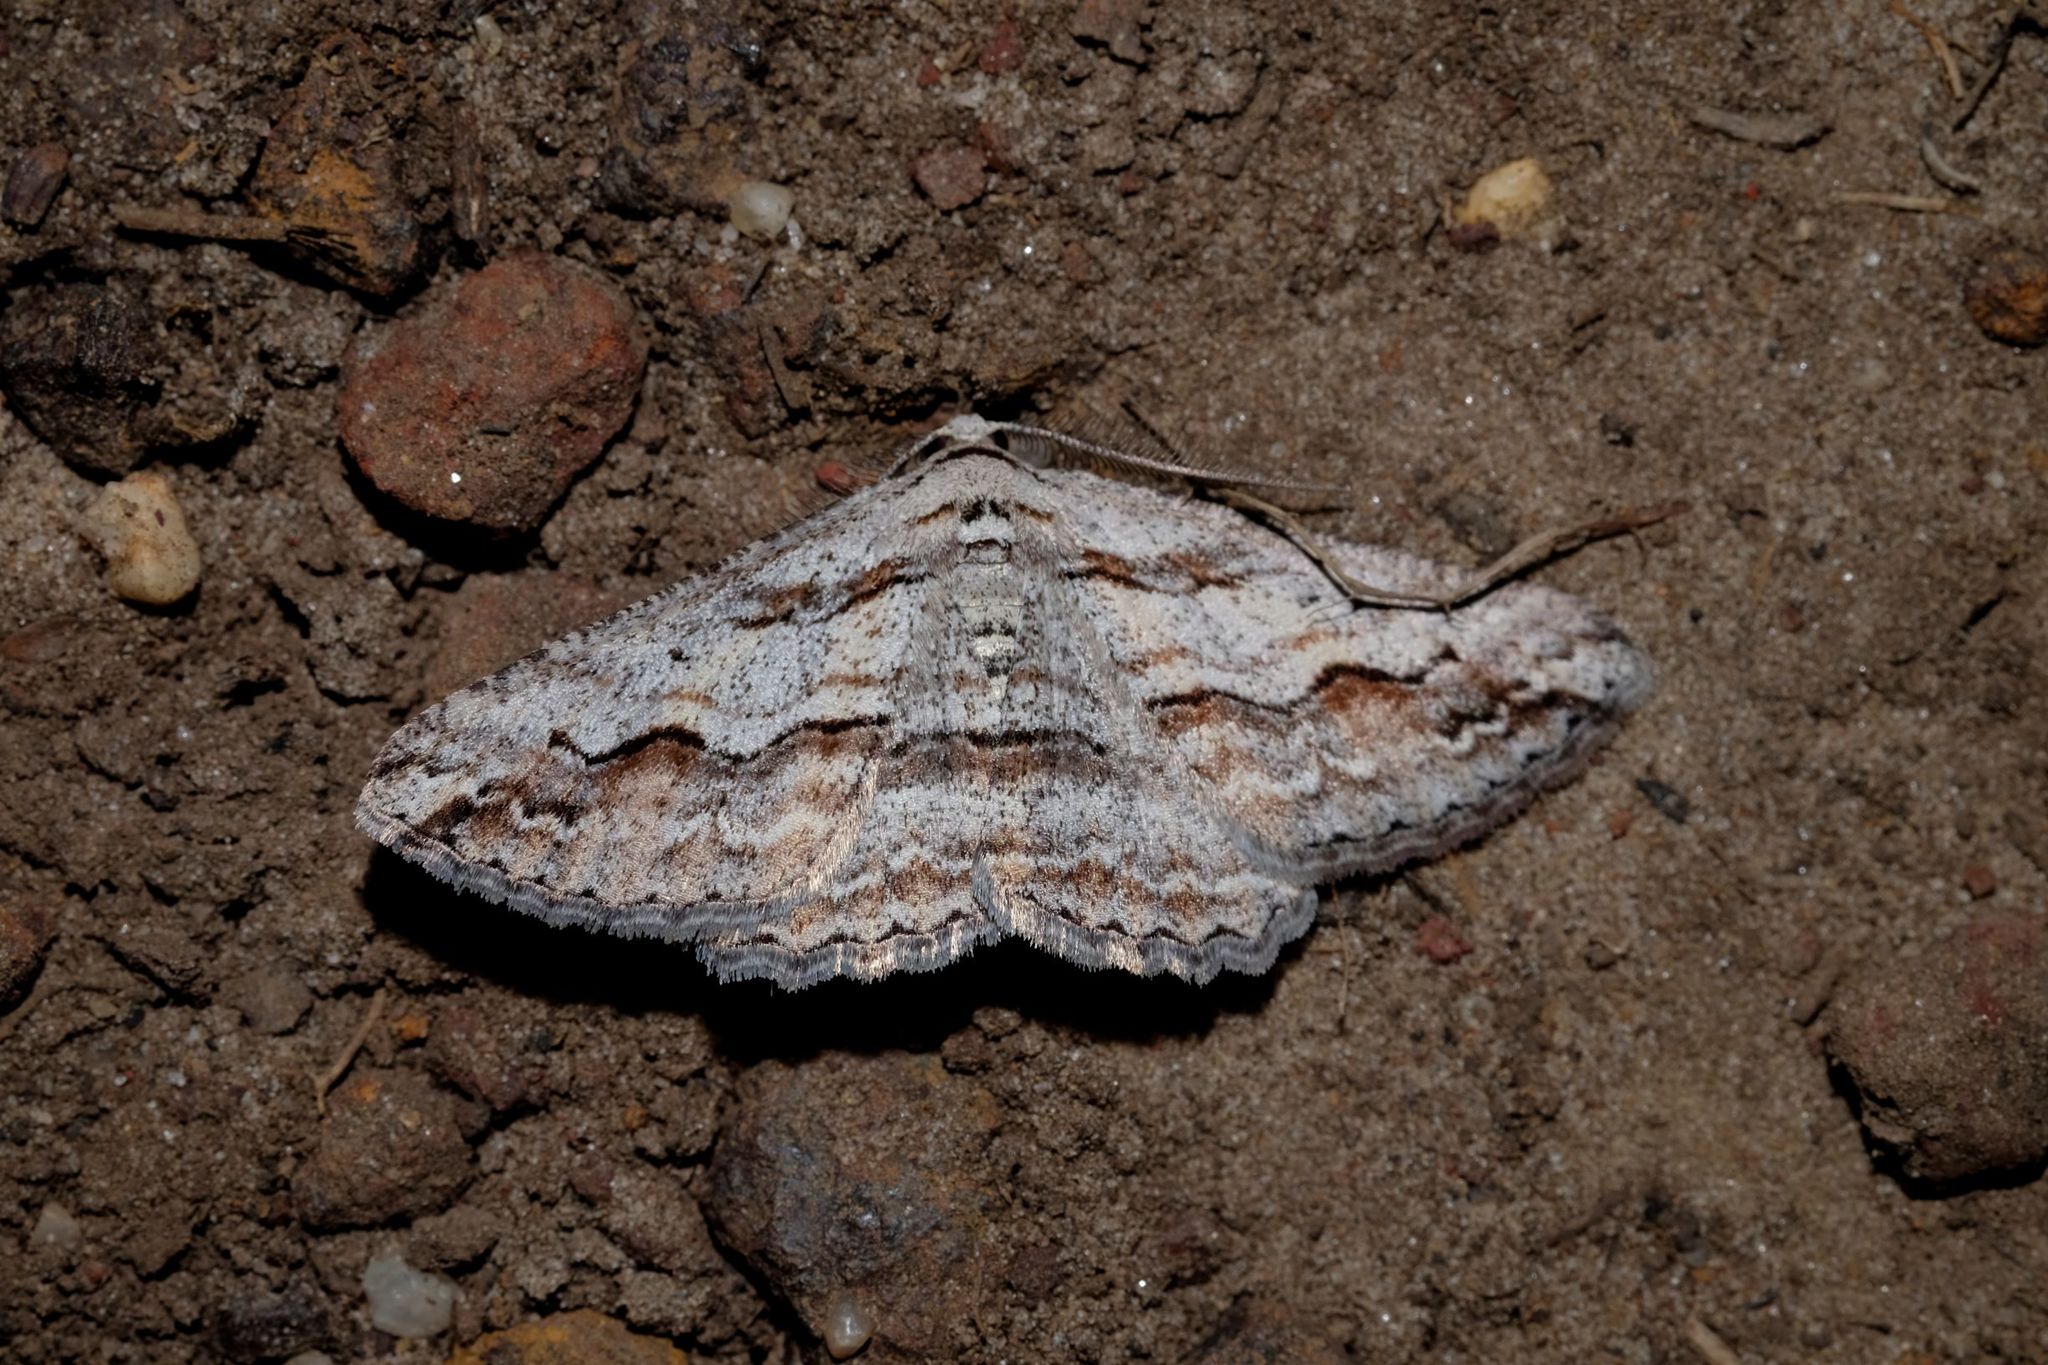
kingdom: Animalia
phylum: Arthropoda
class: Insecta
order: Lepidoptera
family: Geometridae
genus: Syneora
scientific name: Syneora mundifera
